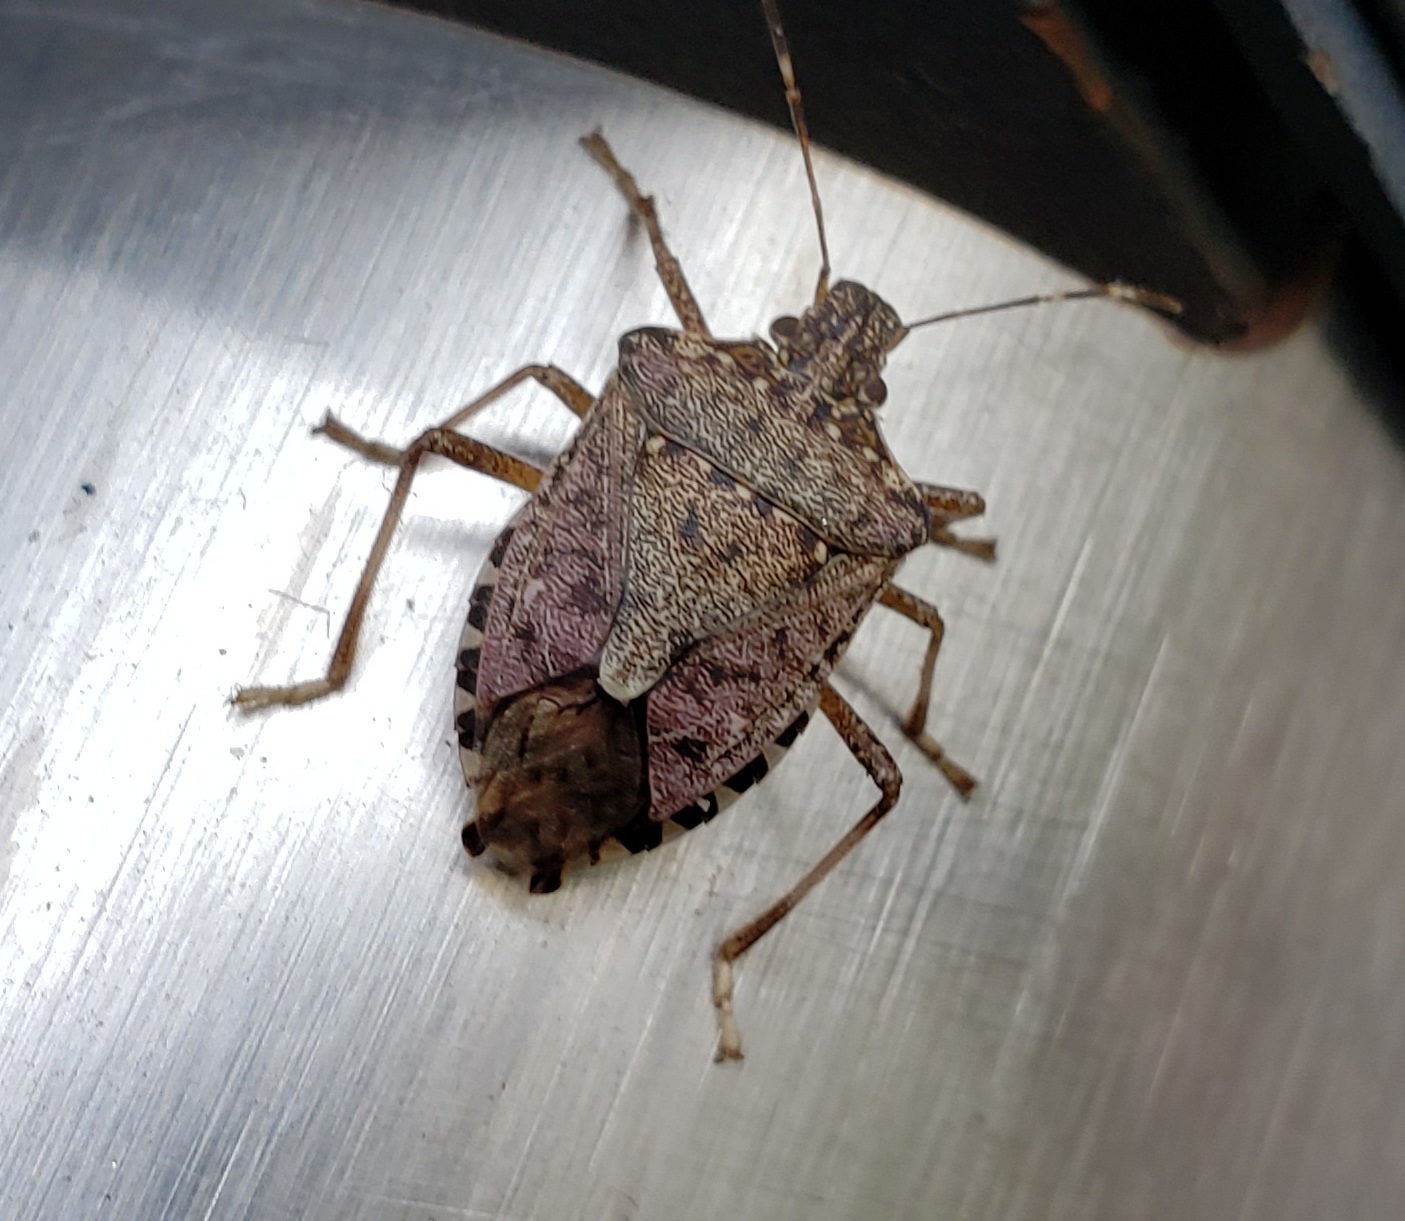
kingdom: Animalia
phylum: Arthropoda
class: Insecta
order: Hemiptera
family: Pentatomidae
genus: Halyomorpha
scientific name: Halyomorpha halys
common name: Brown marmorated stink bug
